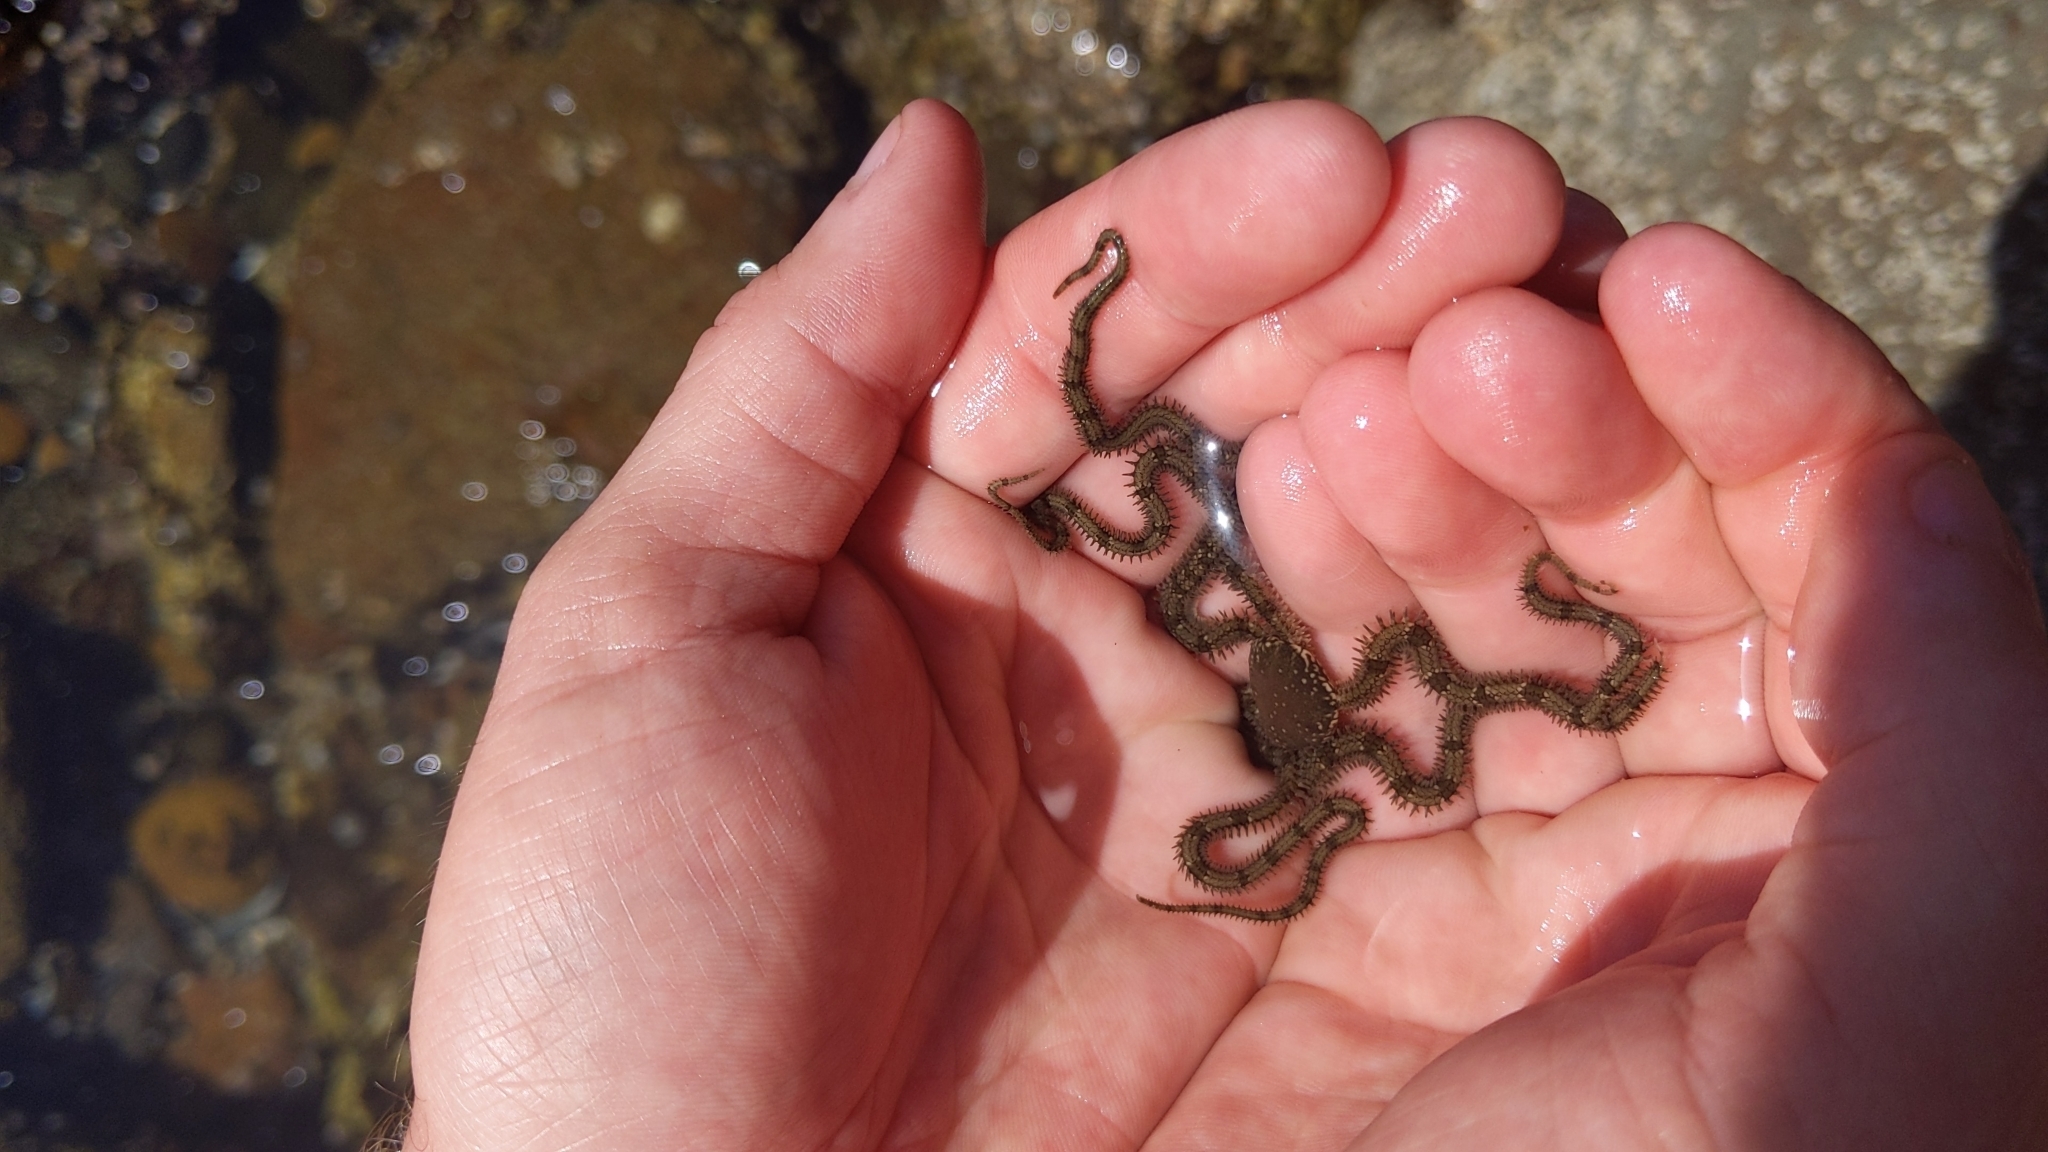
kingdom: Animalia
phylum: Echinodermata
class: Ophiuroidea
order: Amphilepidida
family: Ophionereididae
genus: Ophionereis
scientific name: Ophionereis annulata
